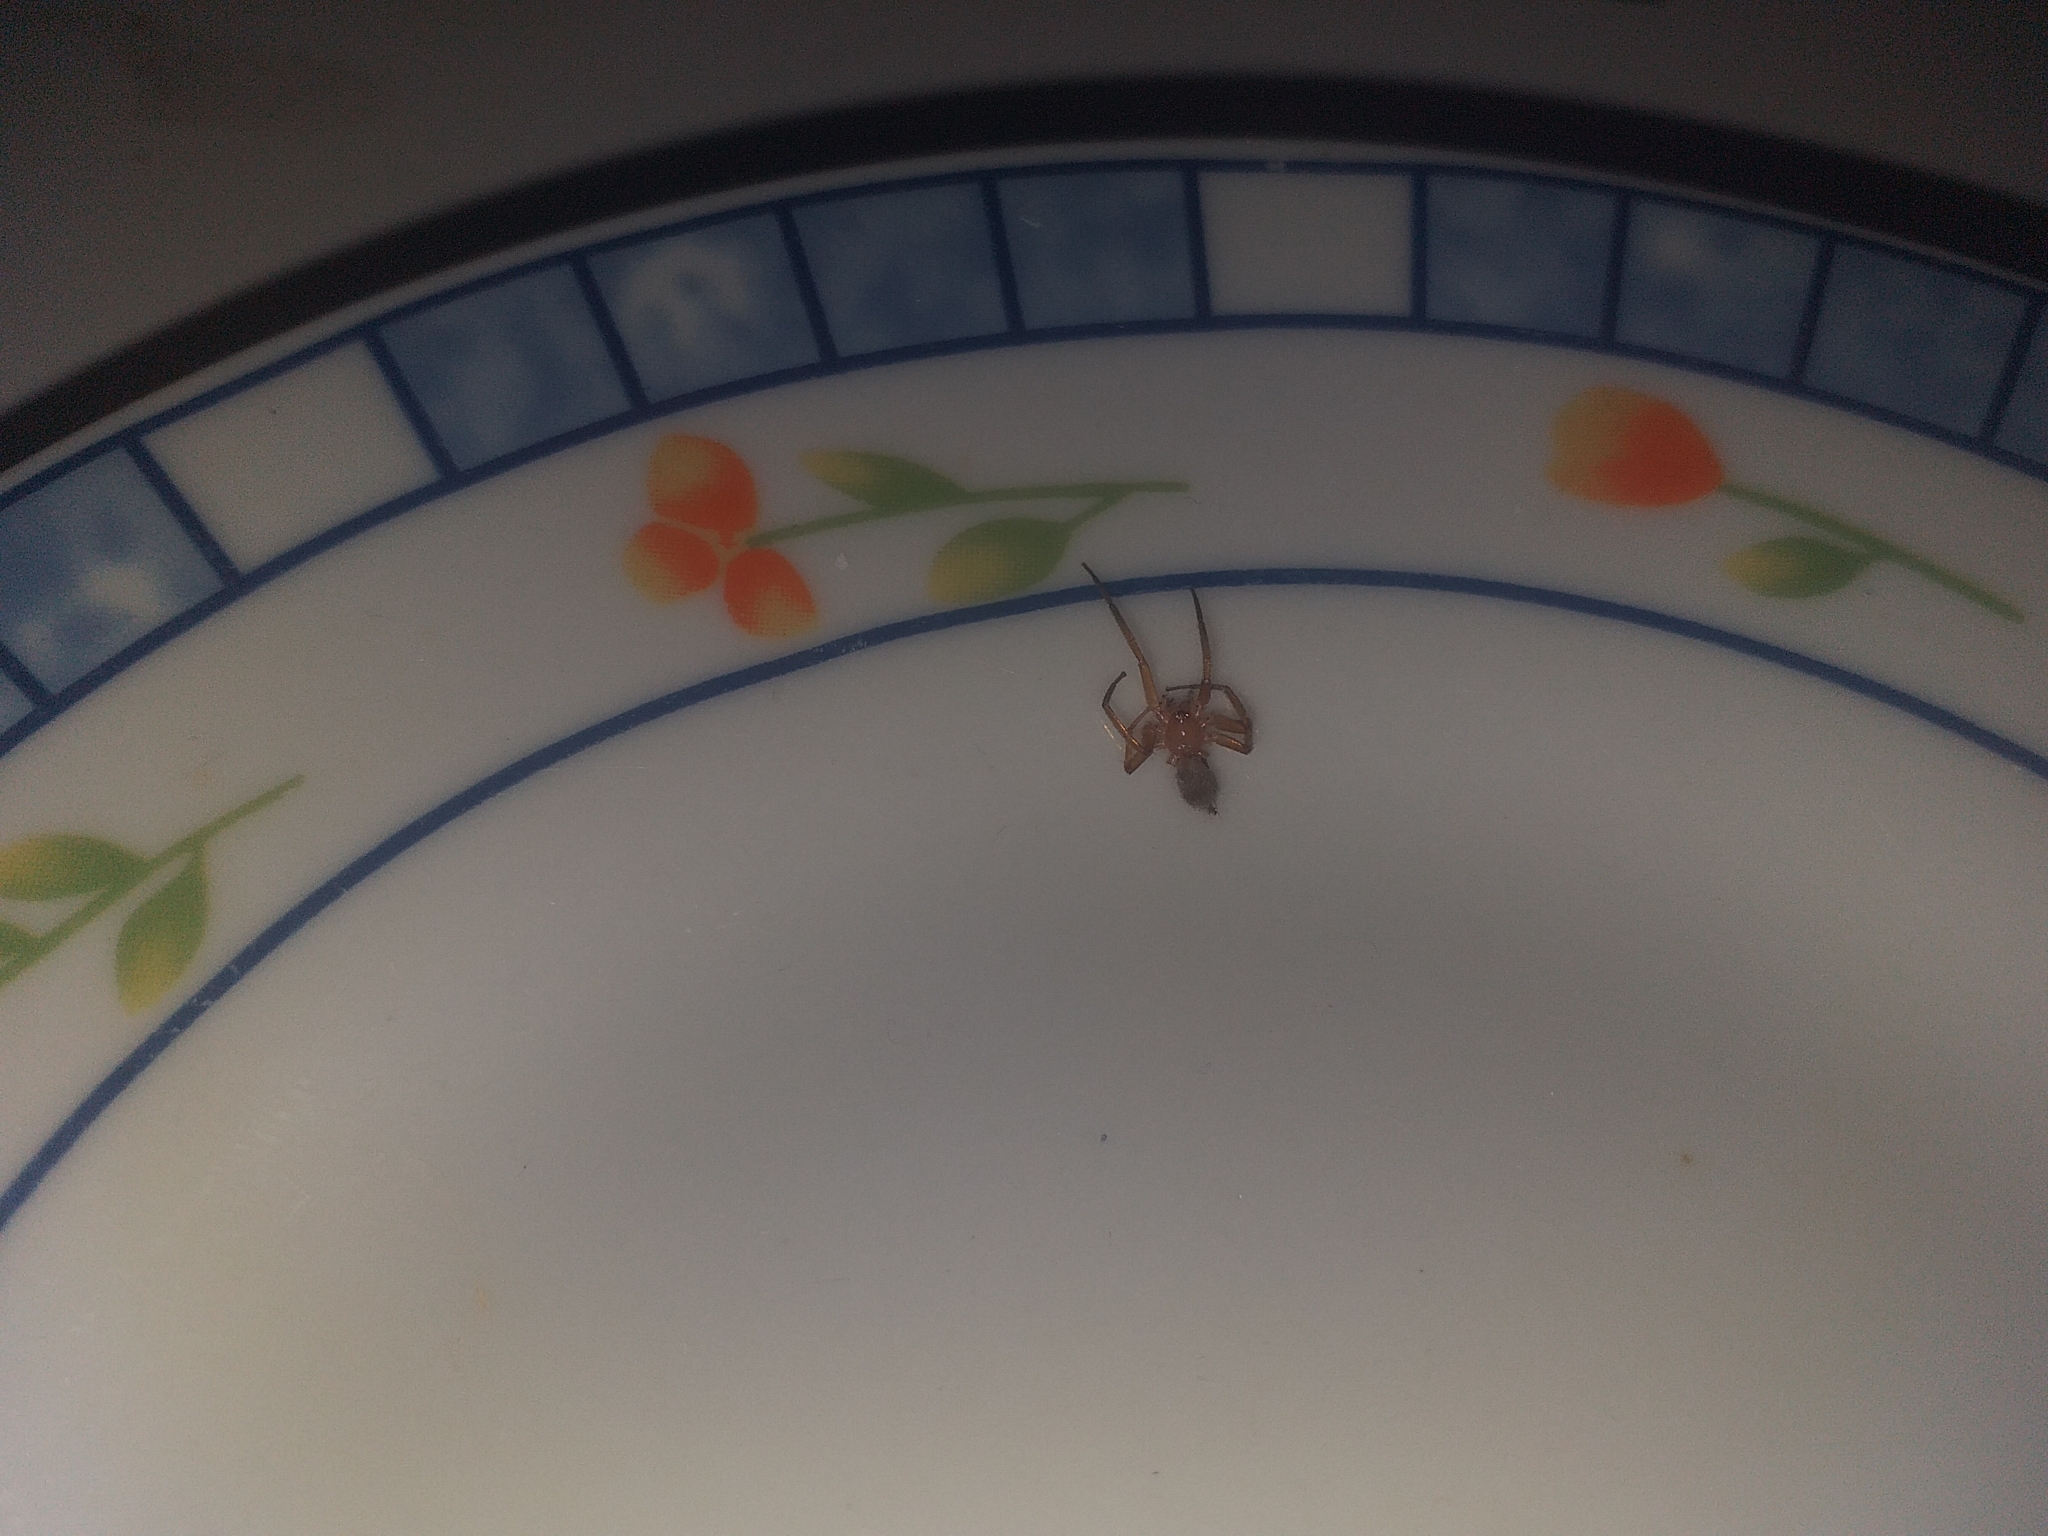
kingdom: Animalia
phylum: Arthropoda
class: Arachnida
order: Araneae
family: Theridiidae
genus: Nesticodes
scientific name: Nesticodes rufipes
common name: Cobweb spiders
